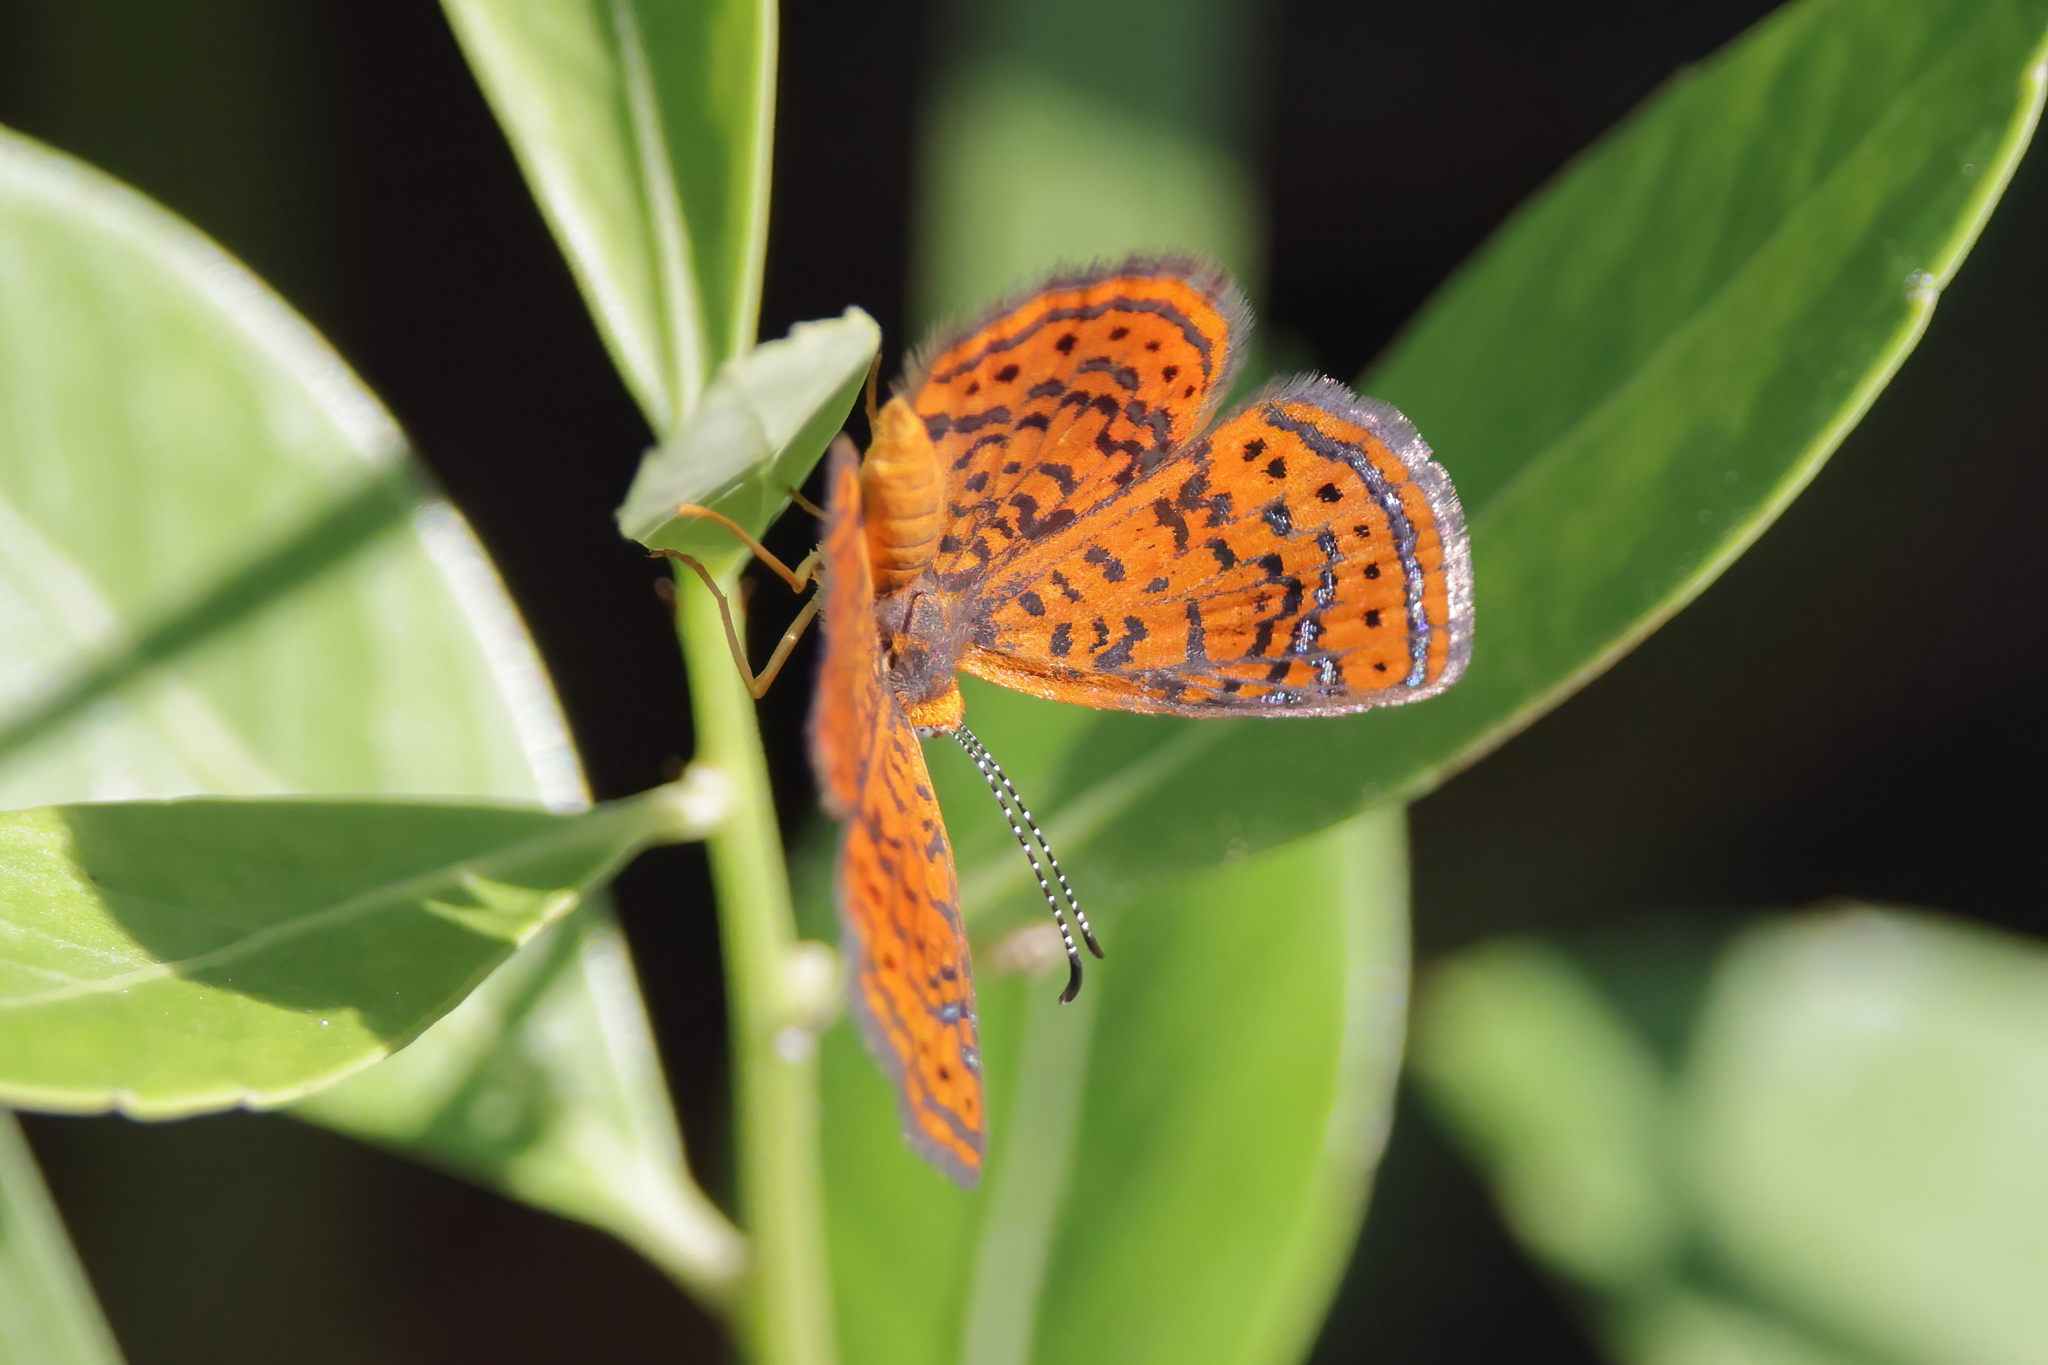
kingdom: Animalia
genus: Calephelis
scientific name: Calephelis virginiensis
